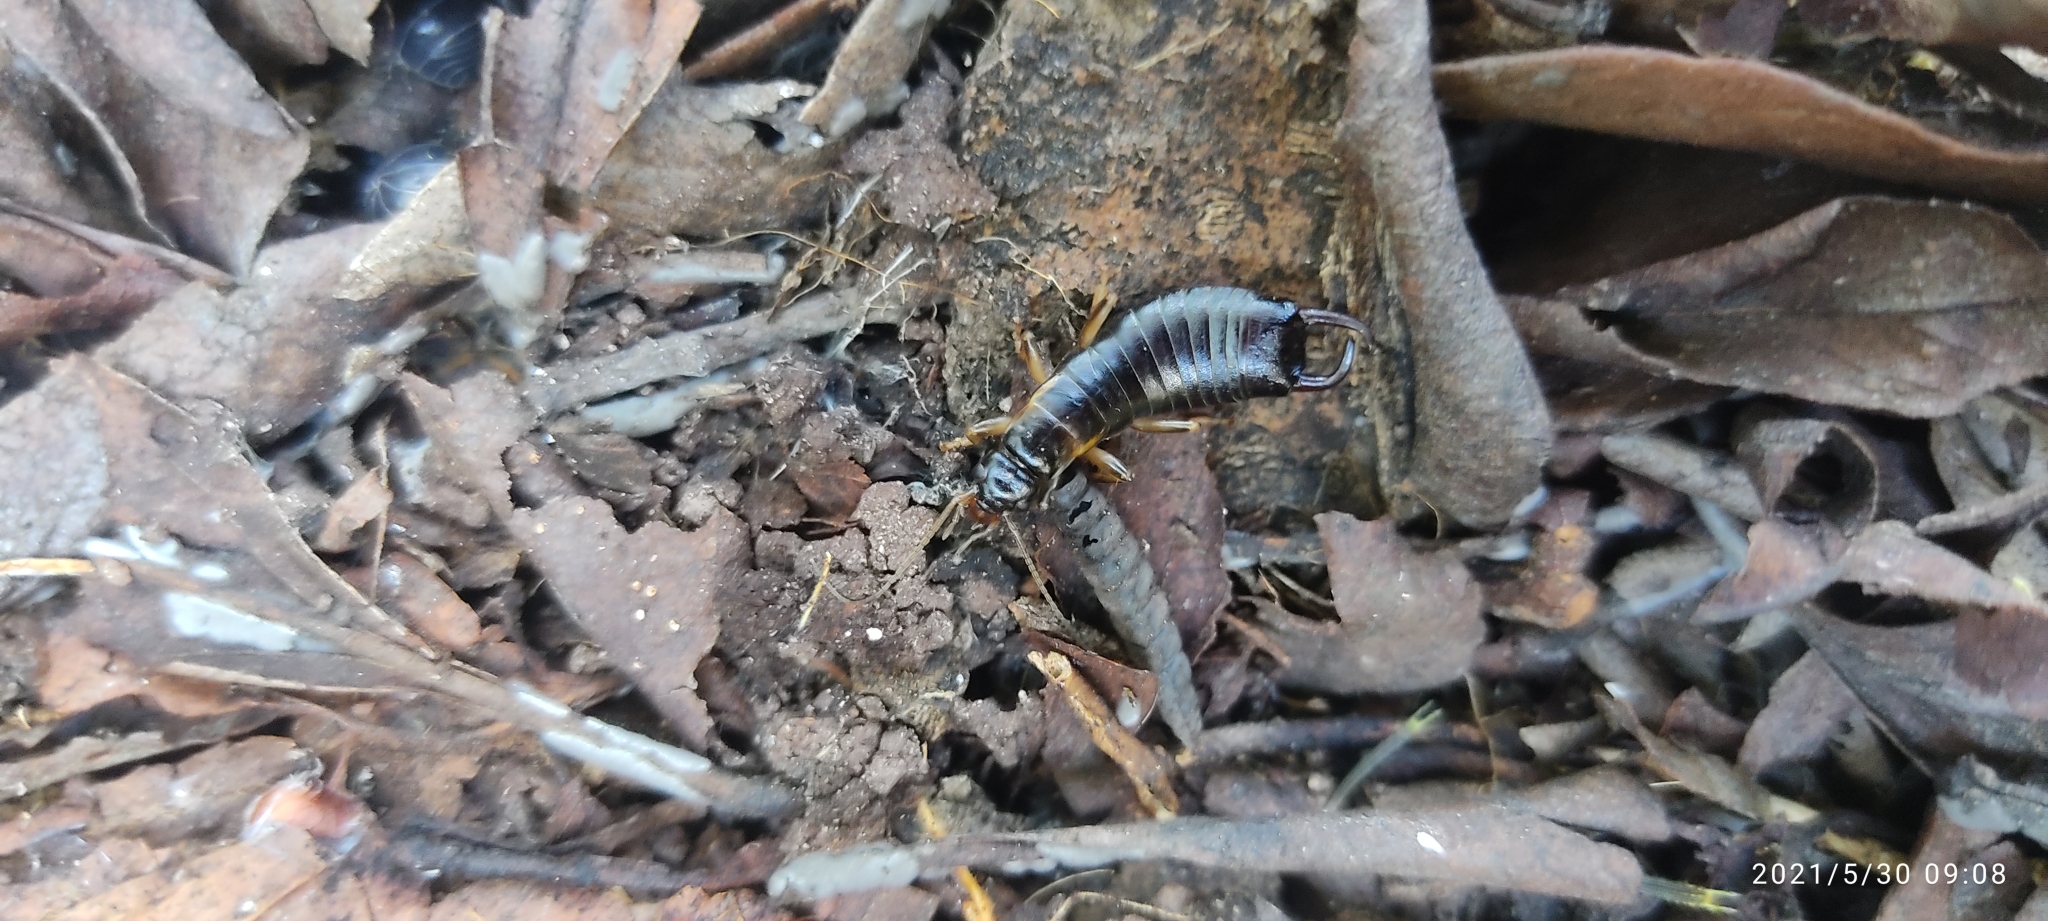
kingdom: Animalia
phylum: Arthropoda
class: Insecta
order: Dermaptera
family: Anisolabididae
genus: Gonolabina
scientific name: Gonolabina trinodosa
